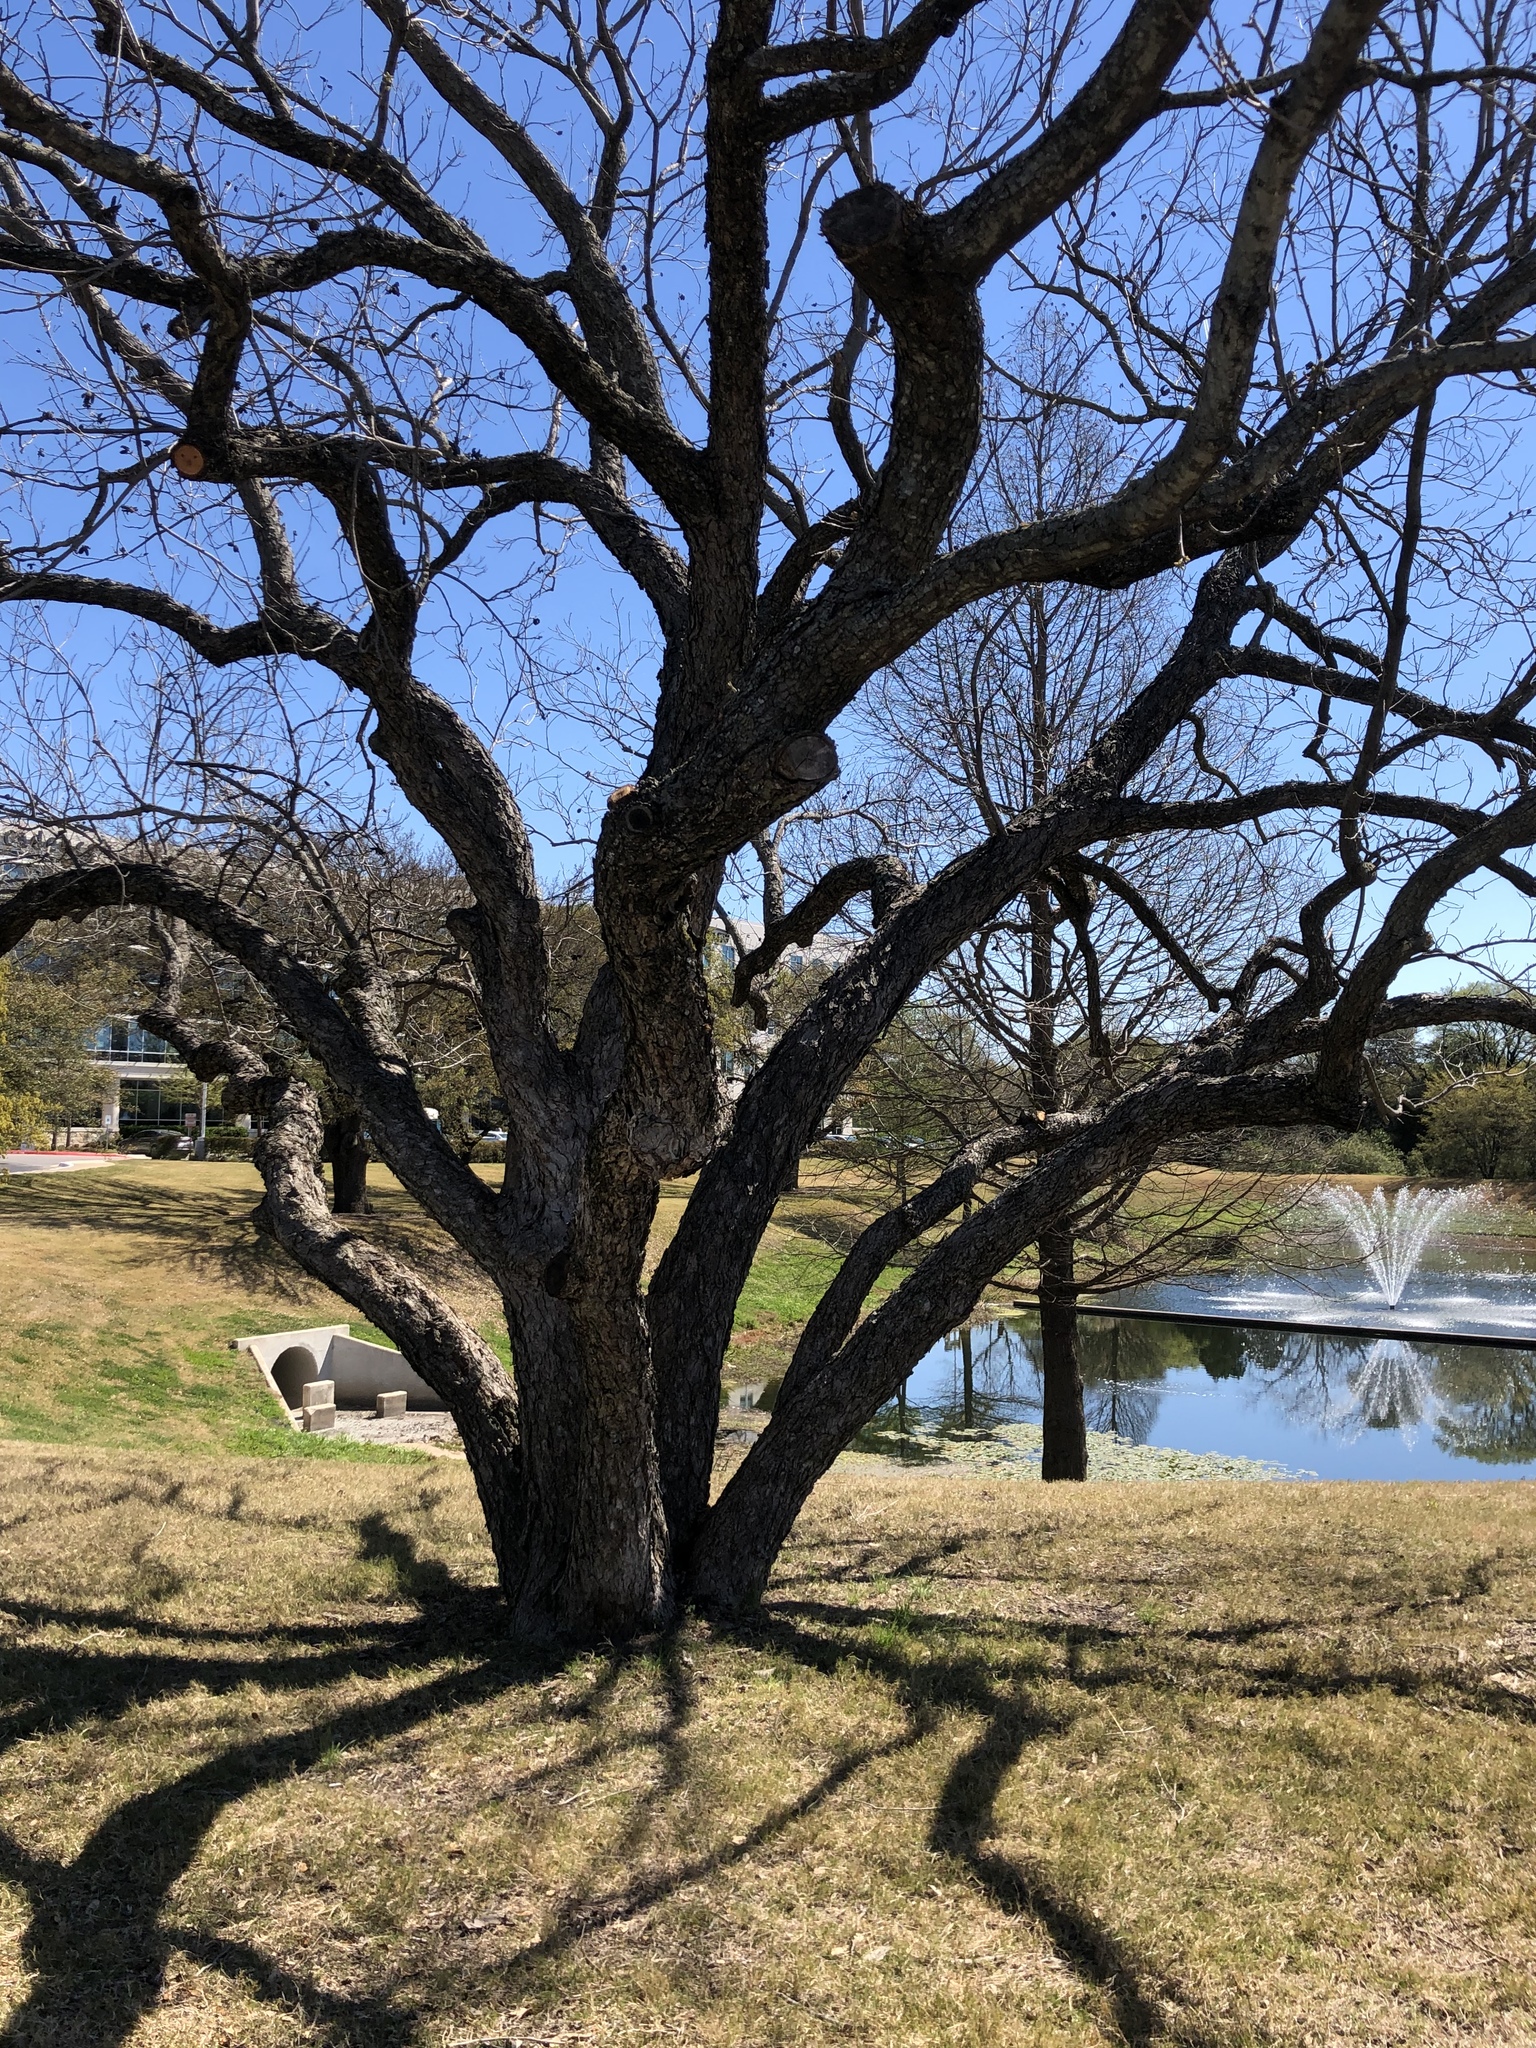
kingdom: Plantae
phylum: Tracheophyta
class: Magnoliopsida
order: Fagales
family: Juglandaceae
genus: Carya
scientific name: Carya illinoinensis
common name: Pecan
